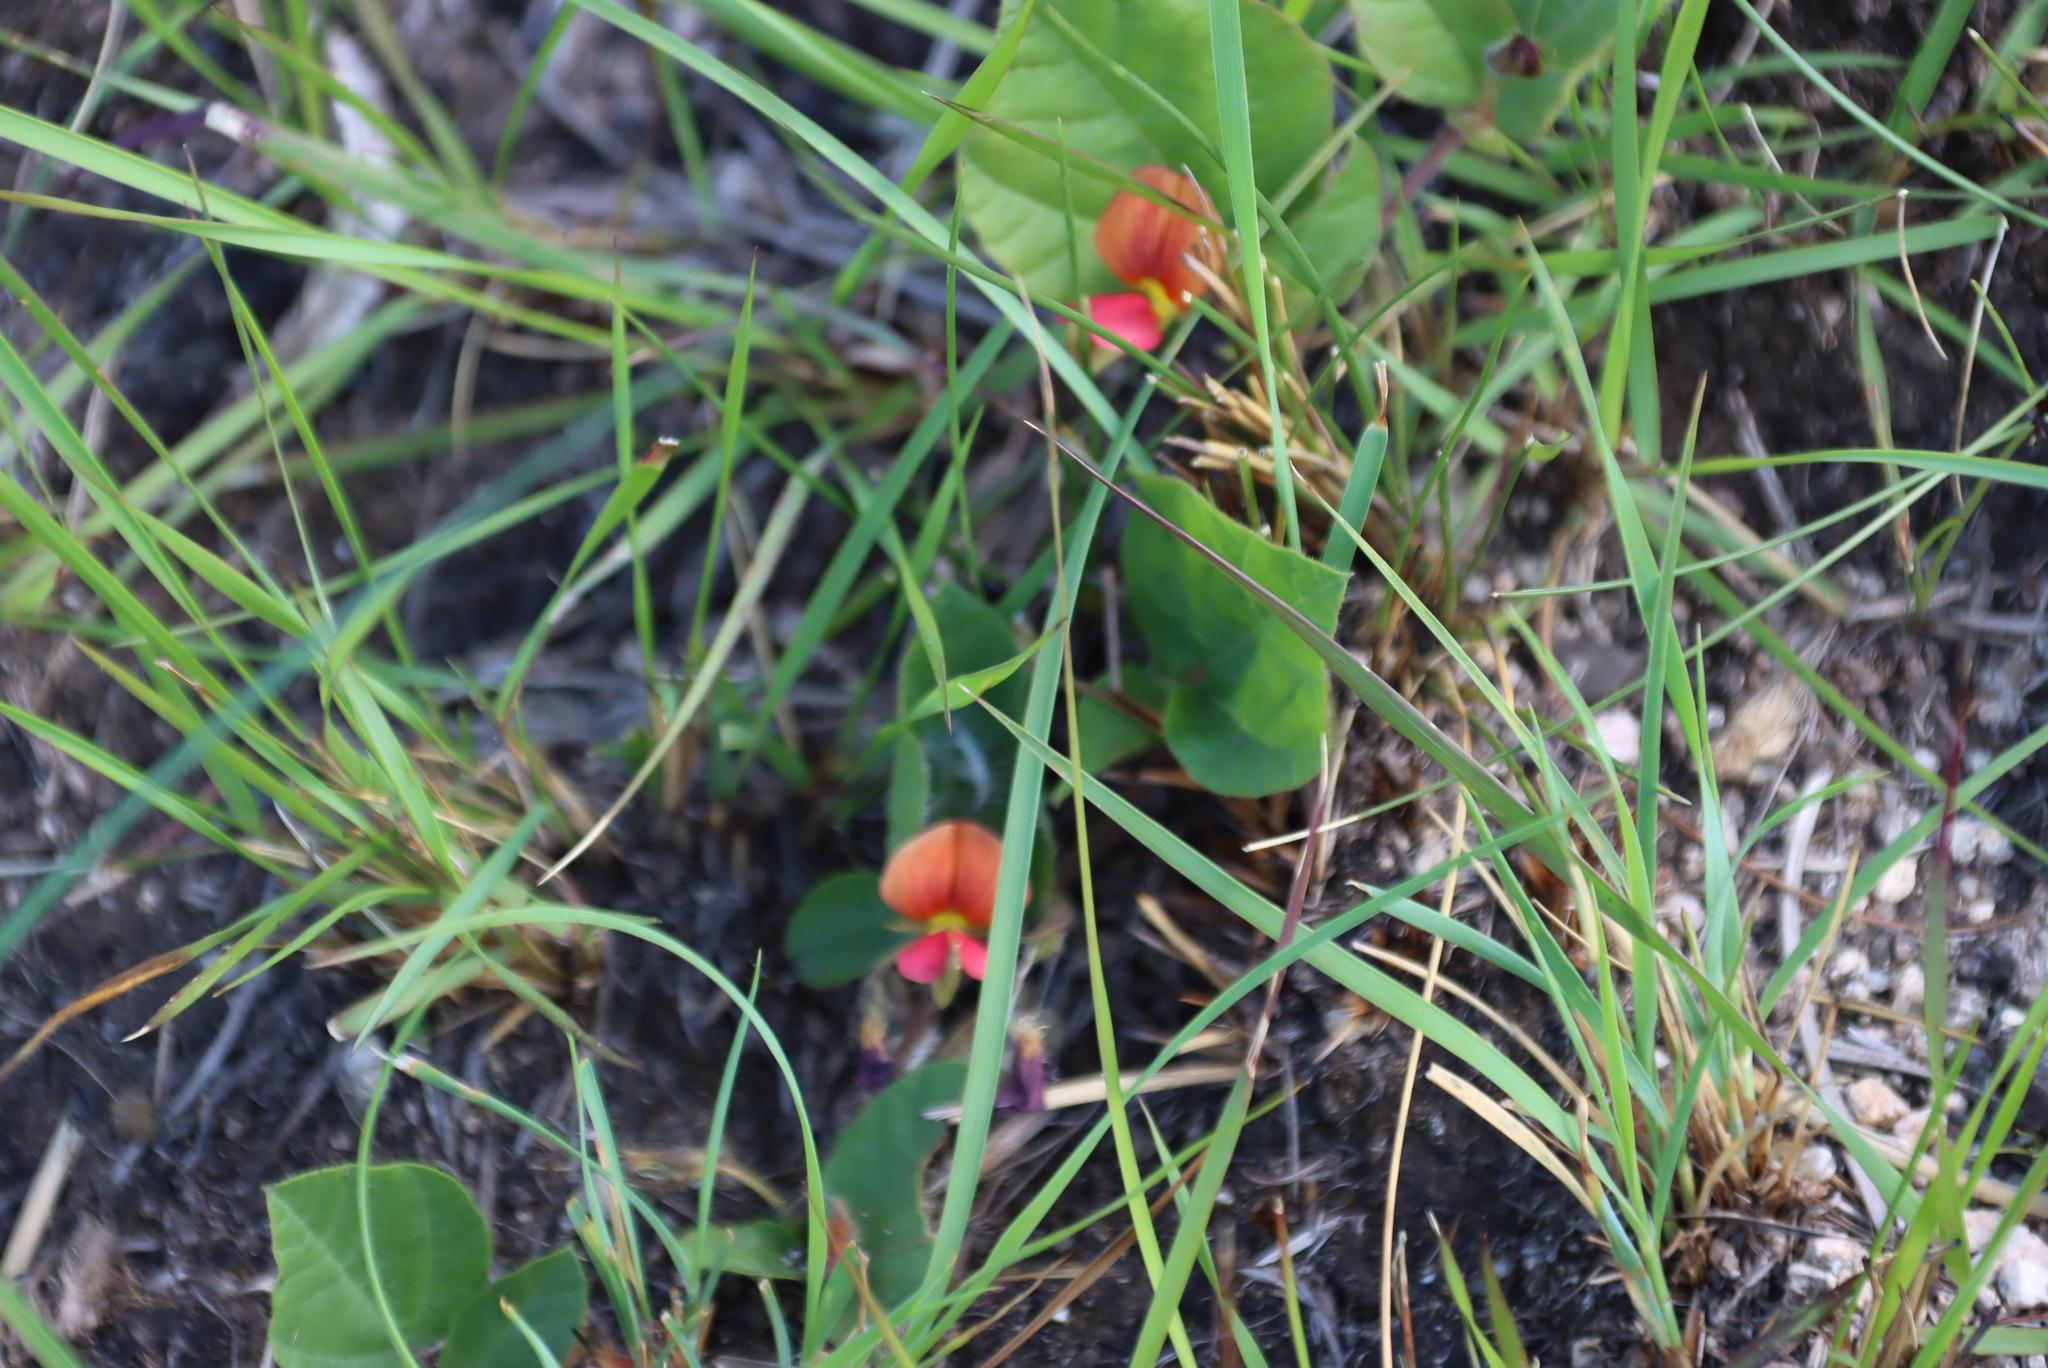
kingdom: Plantae
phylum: Tracheophyta
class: Magnoliopsida
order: Fabales
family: Fabaceae
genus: Rhynchosia
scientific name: Rhynchosia monophylla
